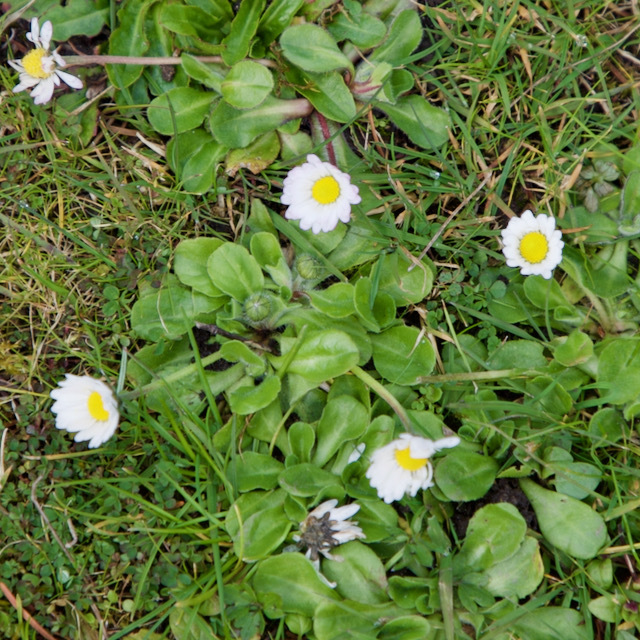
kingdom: Plantae
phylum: Tracheophyta
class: Magnoliopsida
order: Asterales
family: Asteraceae
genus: Bellis
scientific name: Bellis perennis
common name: Lawndaisy
